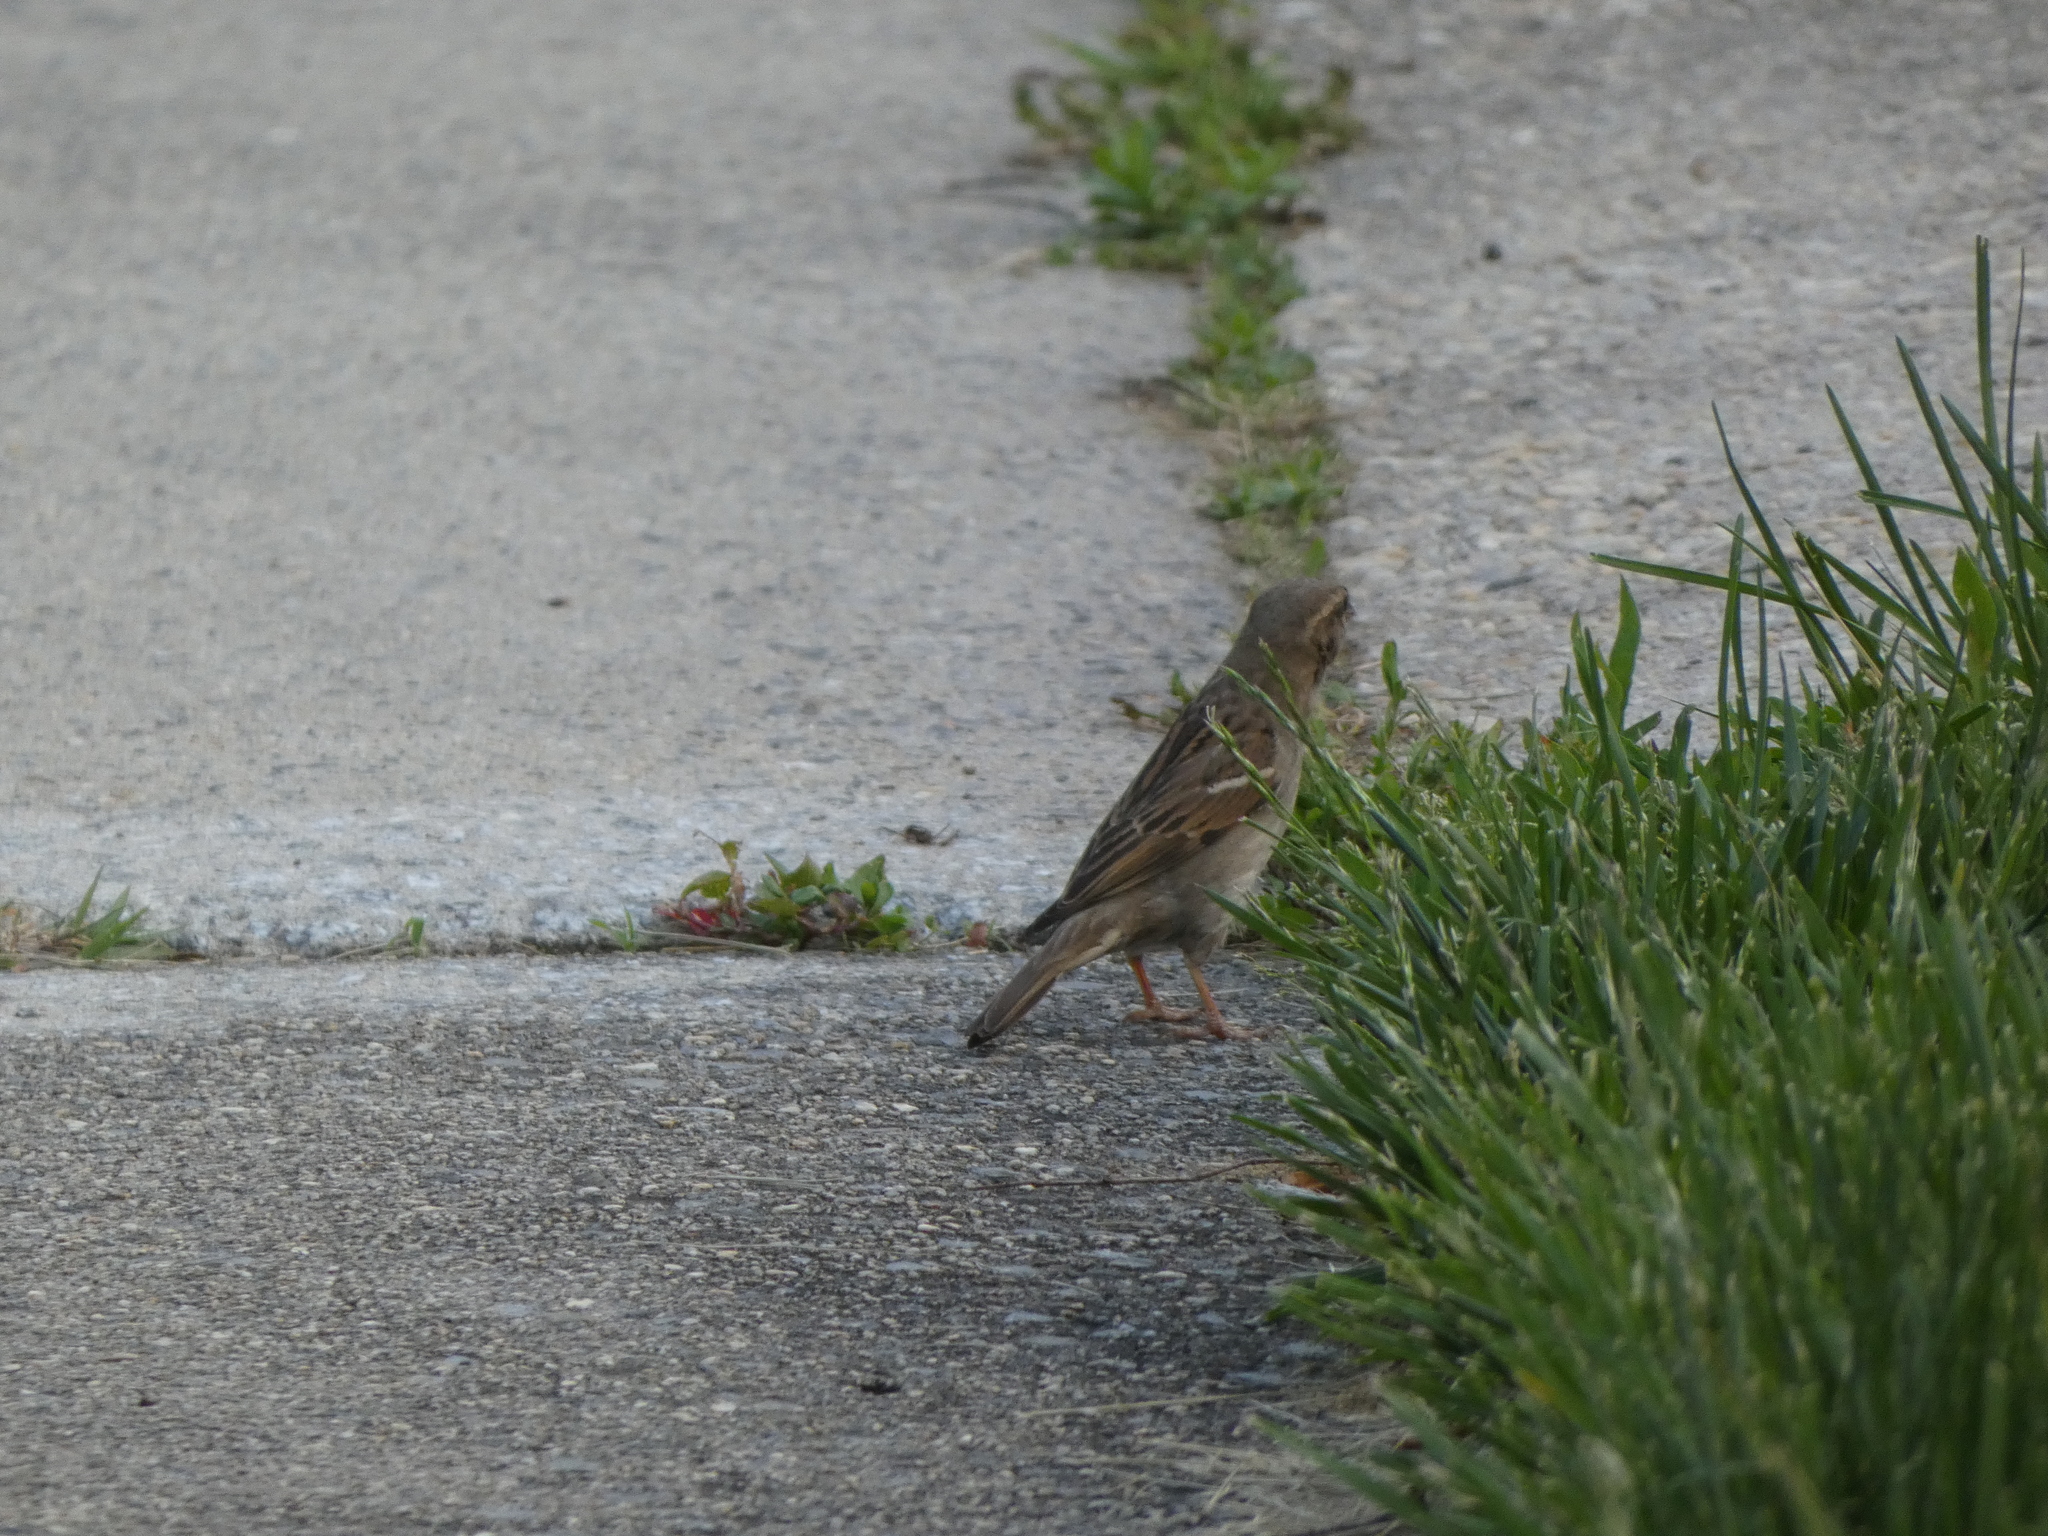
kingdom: Animalia
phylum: Chordata
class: Aves
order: Passeriformes
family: Passeridae
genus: Passer
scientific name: Passer domesticus
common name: House sparrow
